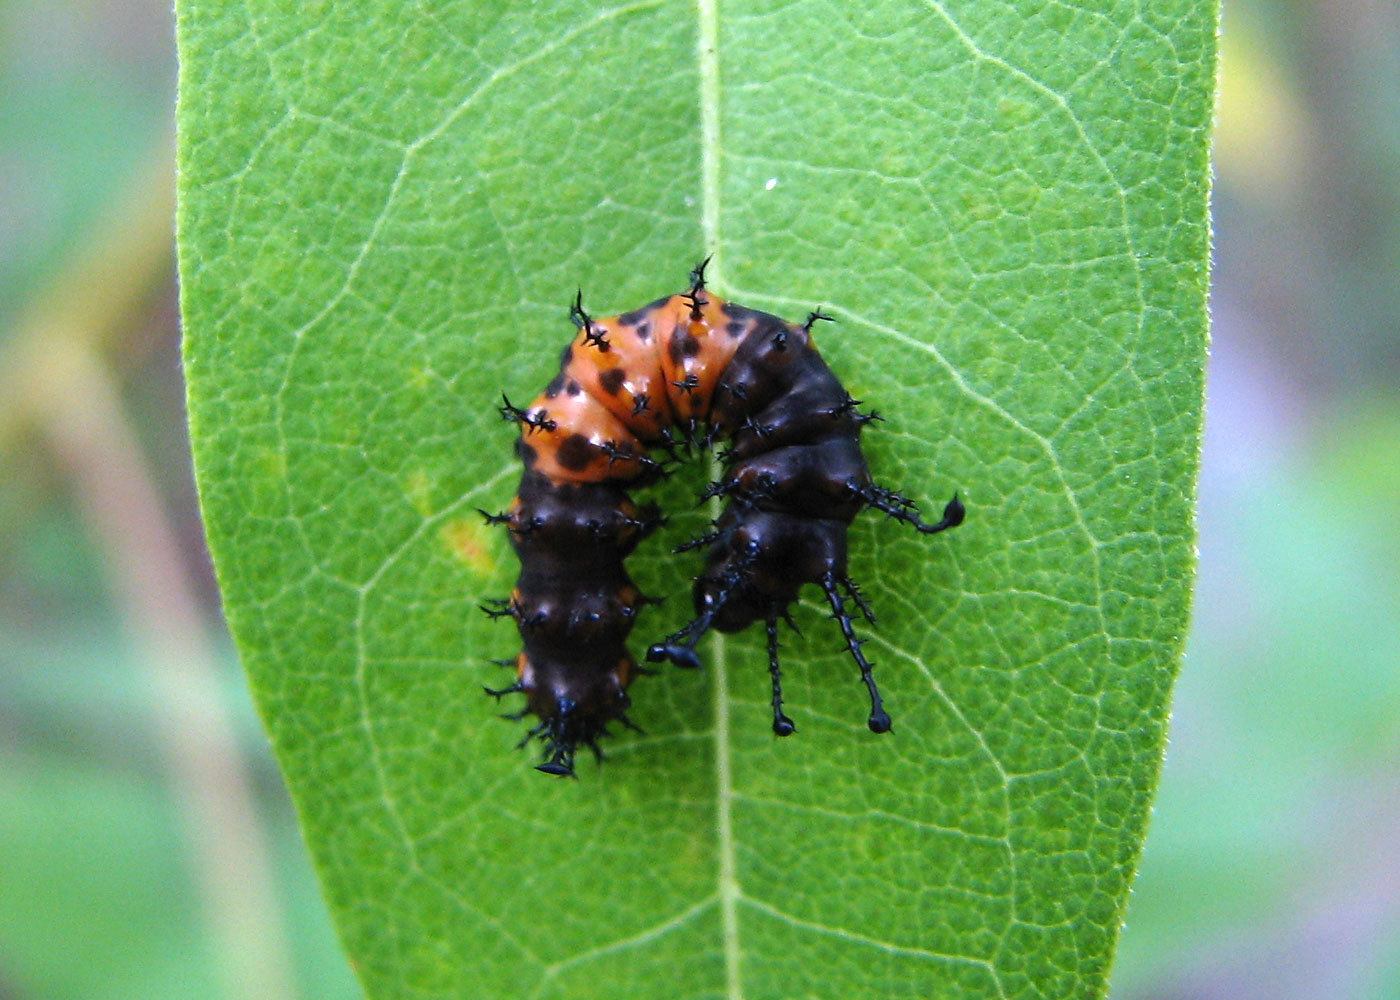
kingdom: Animalia
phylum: Arthropoda
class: Insecta
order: Lepidoptera
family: Saturniidae
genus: Citheronia
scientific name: Citheronia splendens
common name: Splendid royal moth
